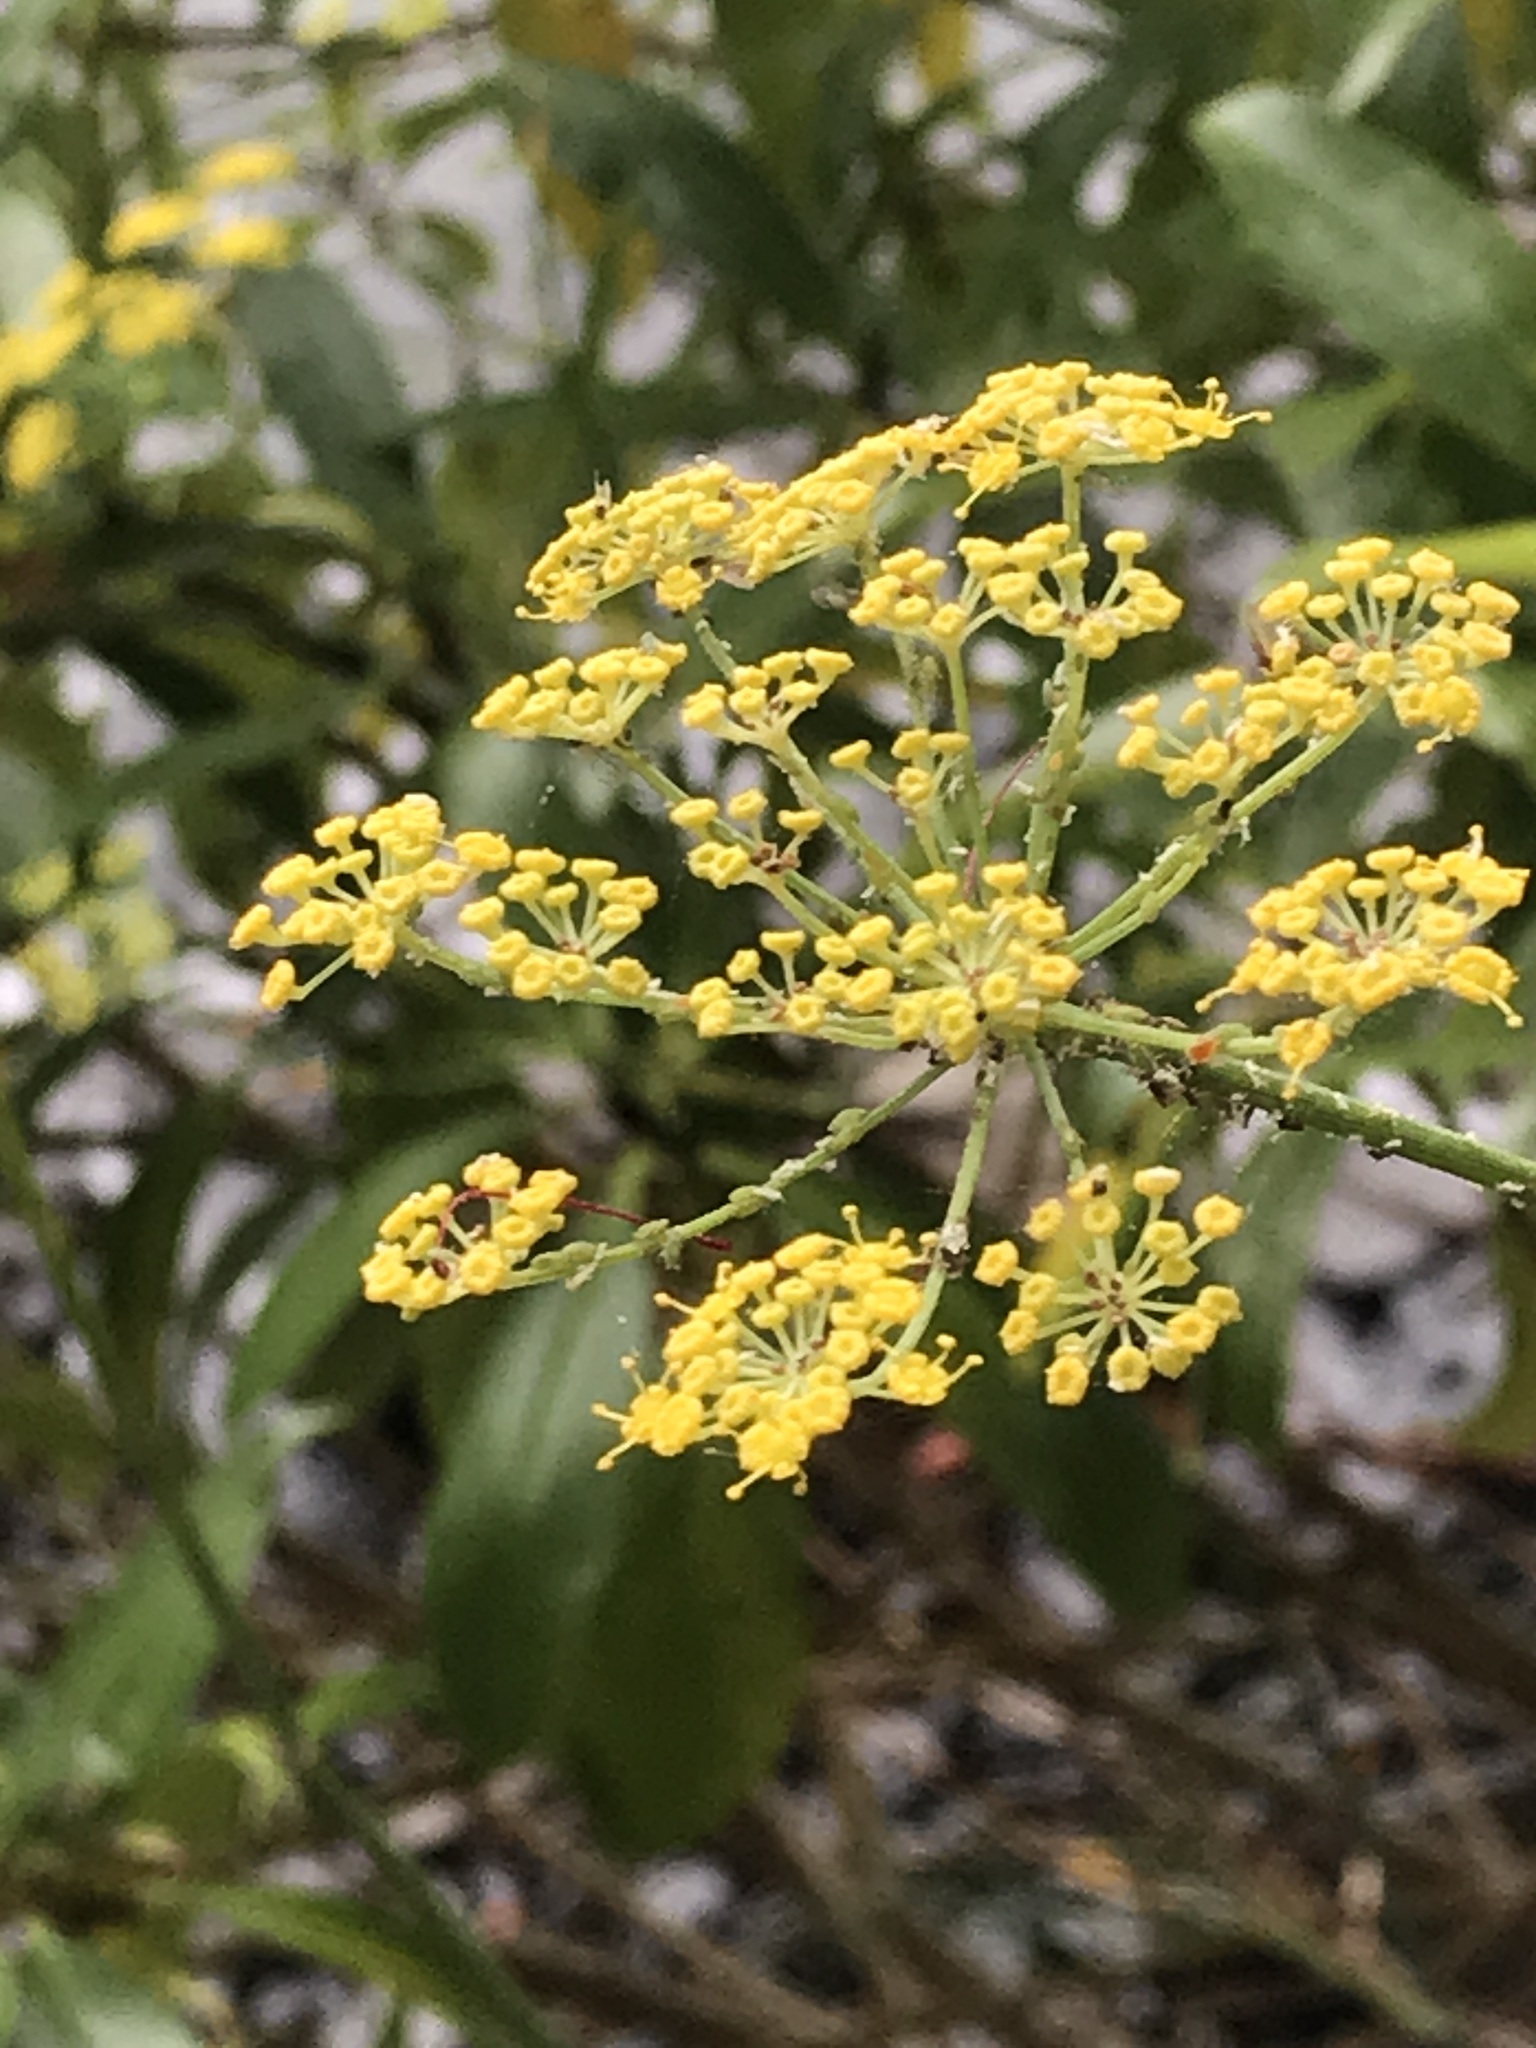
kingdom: Plantae
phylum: Tracheophyta
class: Magnoliopsida
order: Apiales
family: Apiaceae
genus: Foeniculum
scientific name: Foeniculum vulgare
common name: Fennel
